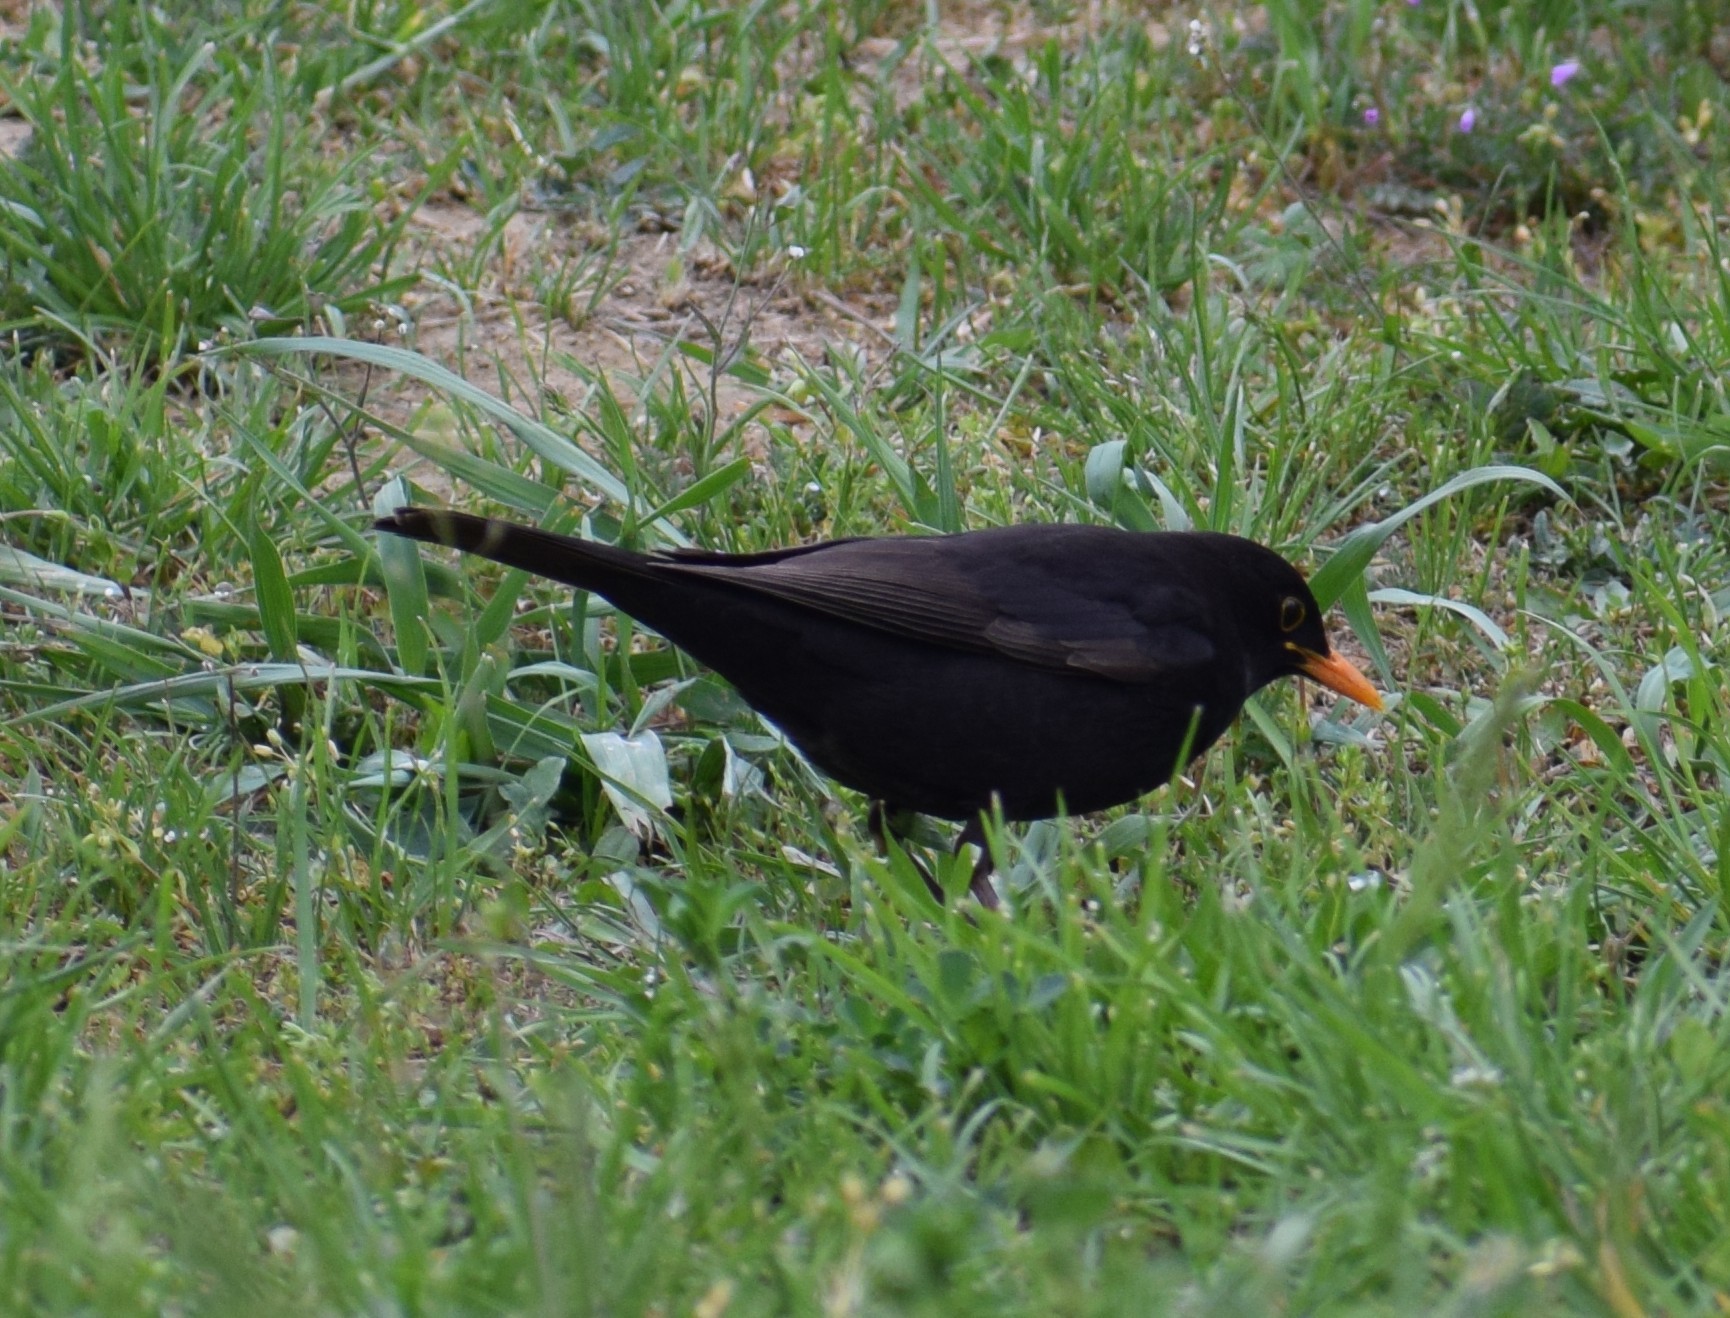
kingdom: Animalia
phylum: Chordata
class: Aves
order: Passeriformes
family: Turdidae
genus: Turdus
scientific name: Turdus merula
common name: Common blackbird
